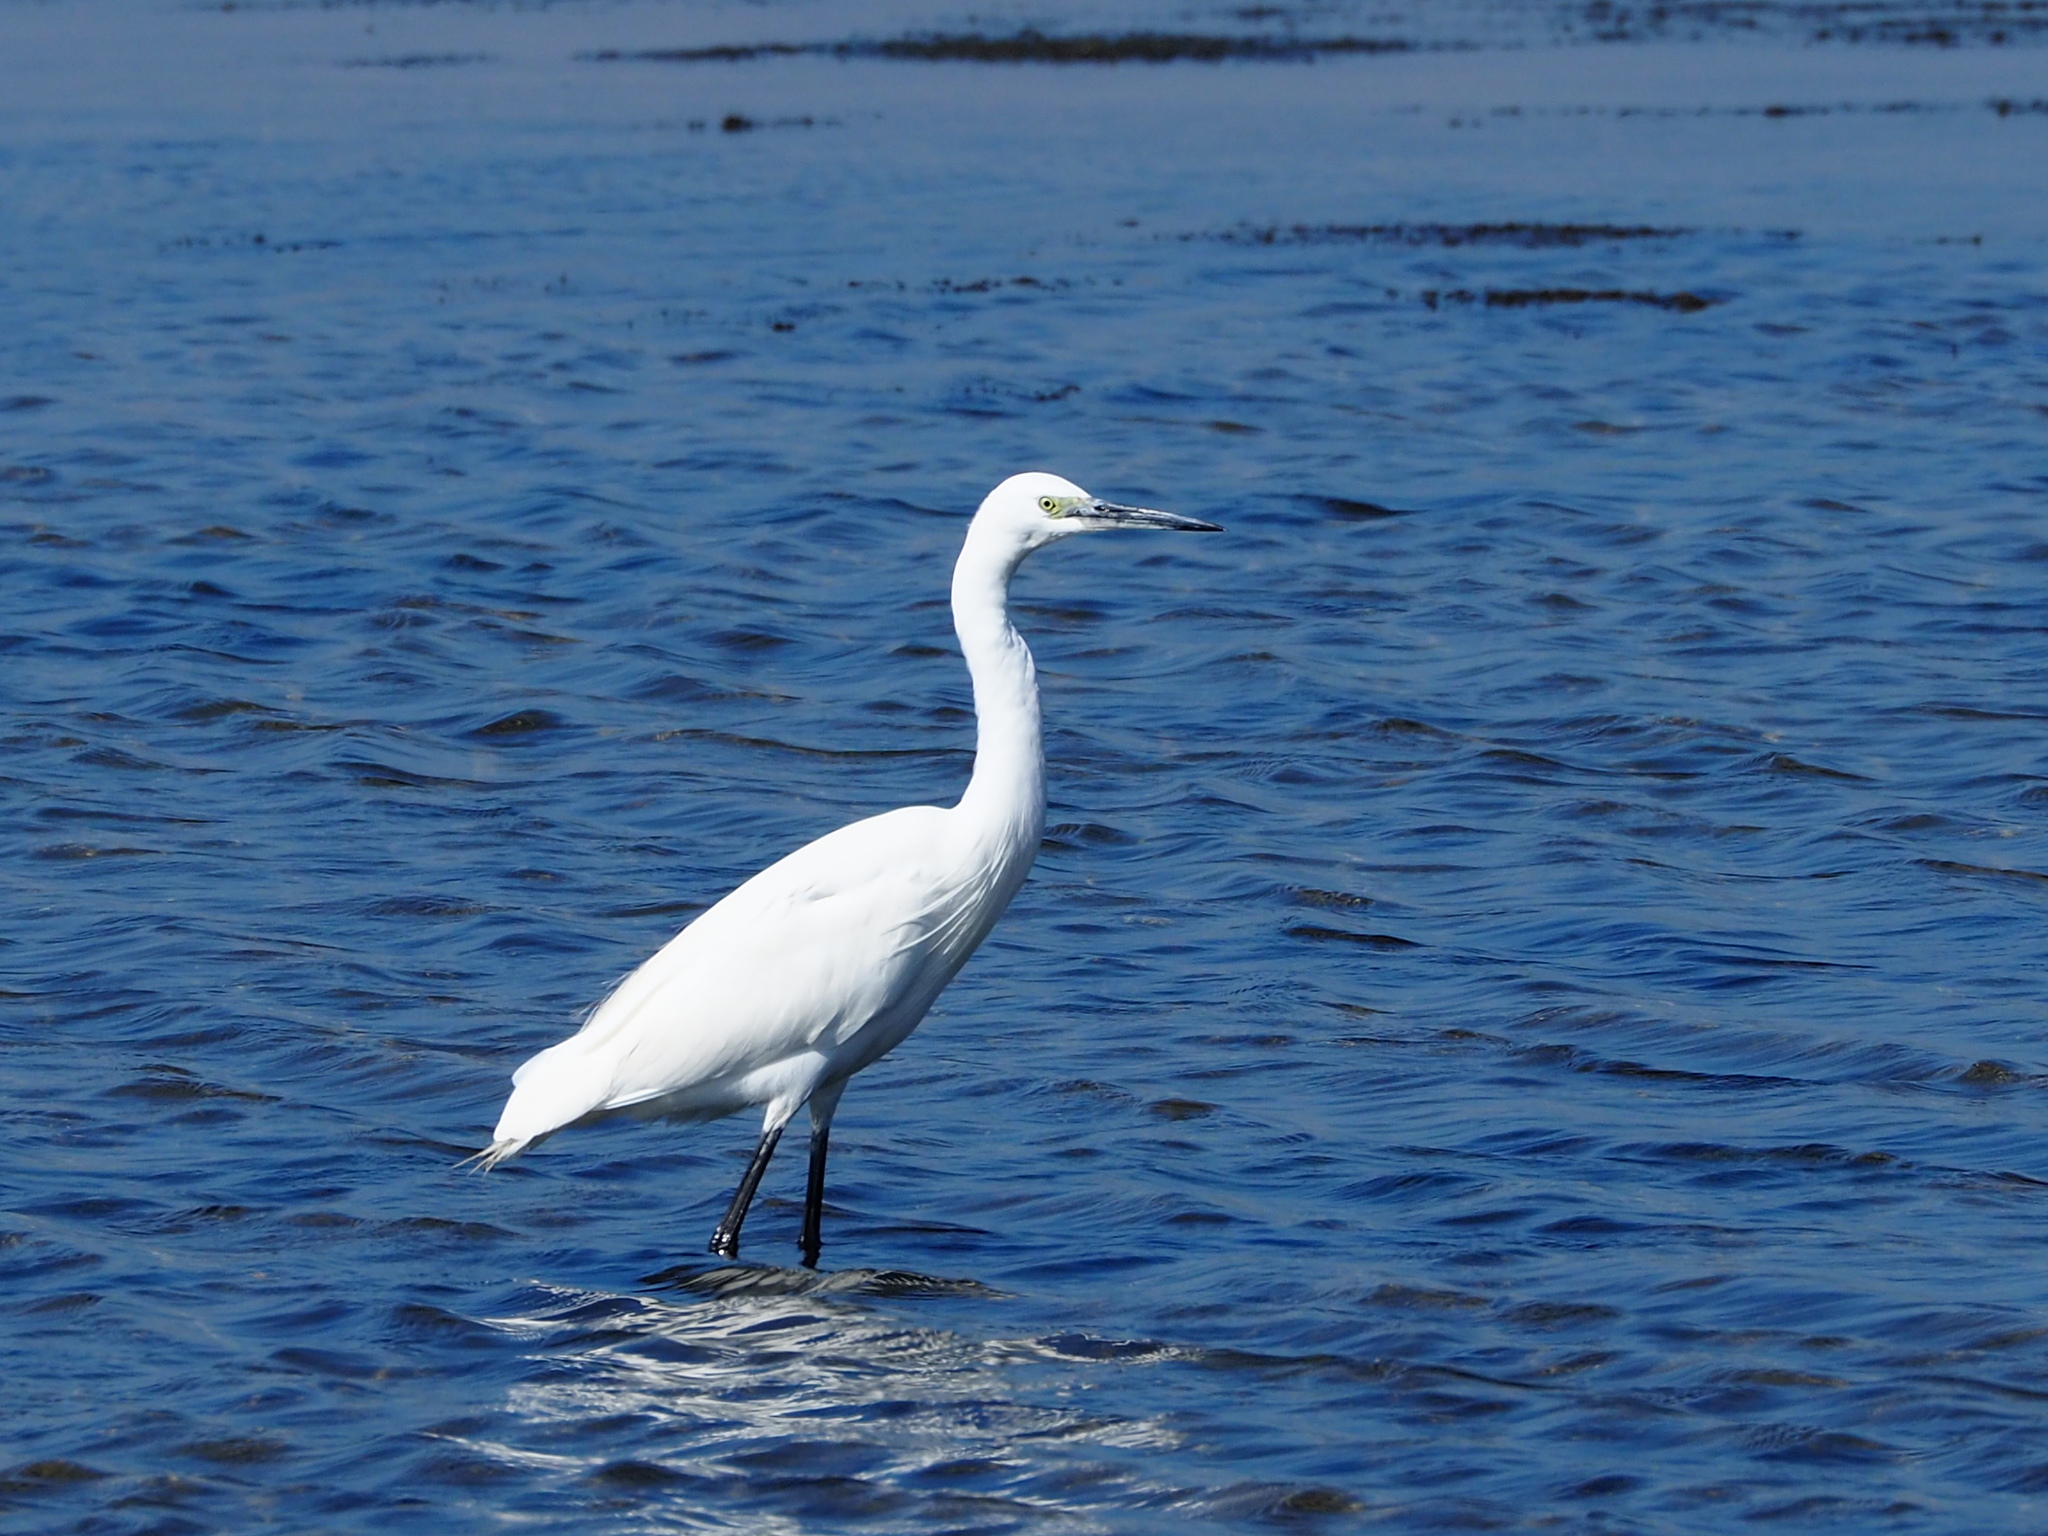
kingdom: Animalia
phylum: Chordata
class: Aves
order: Pelecaniformes
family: Ardeidae
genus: Egretta
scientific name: Egretta garzetta
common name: Little egret
